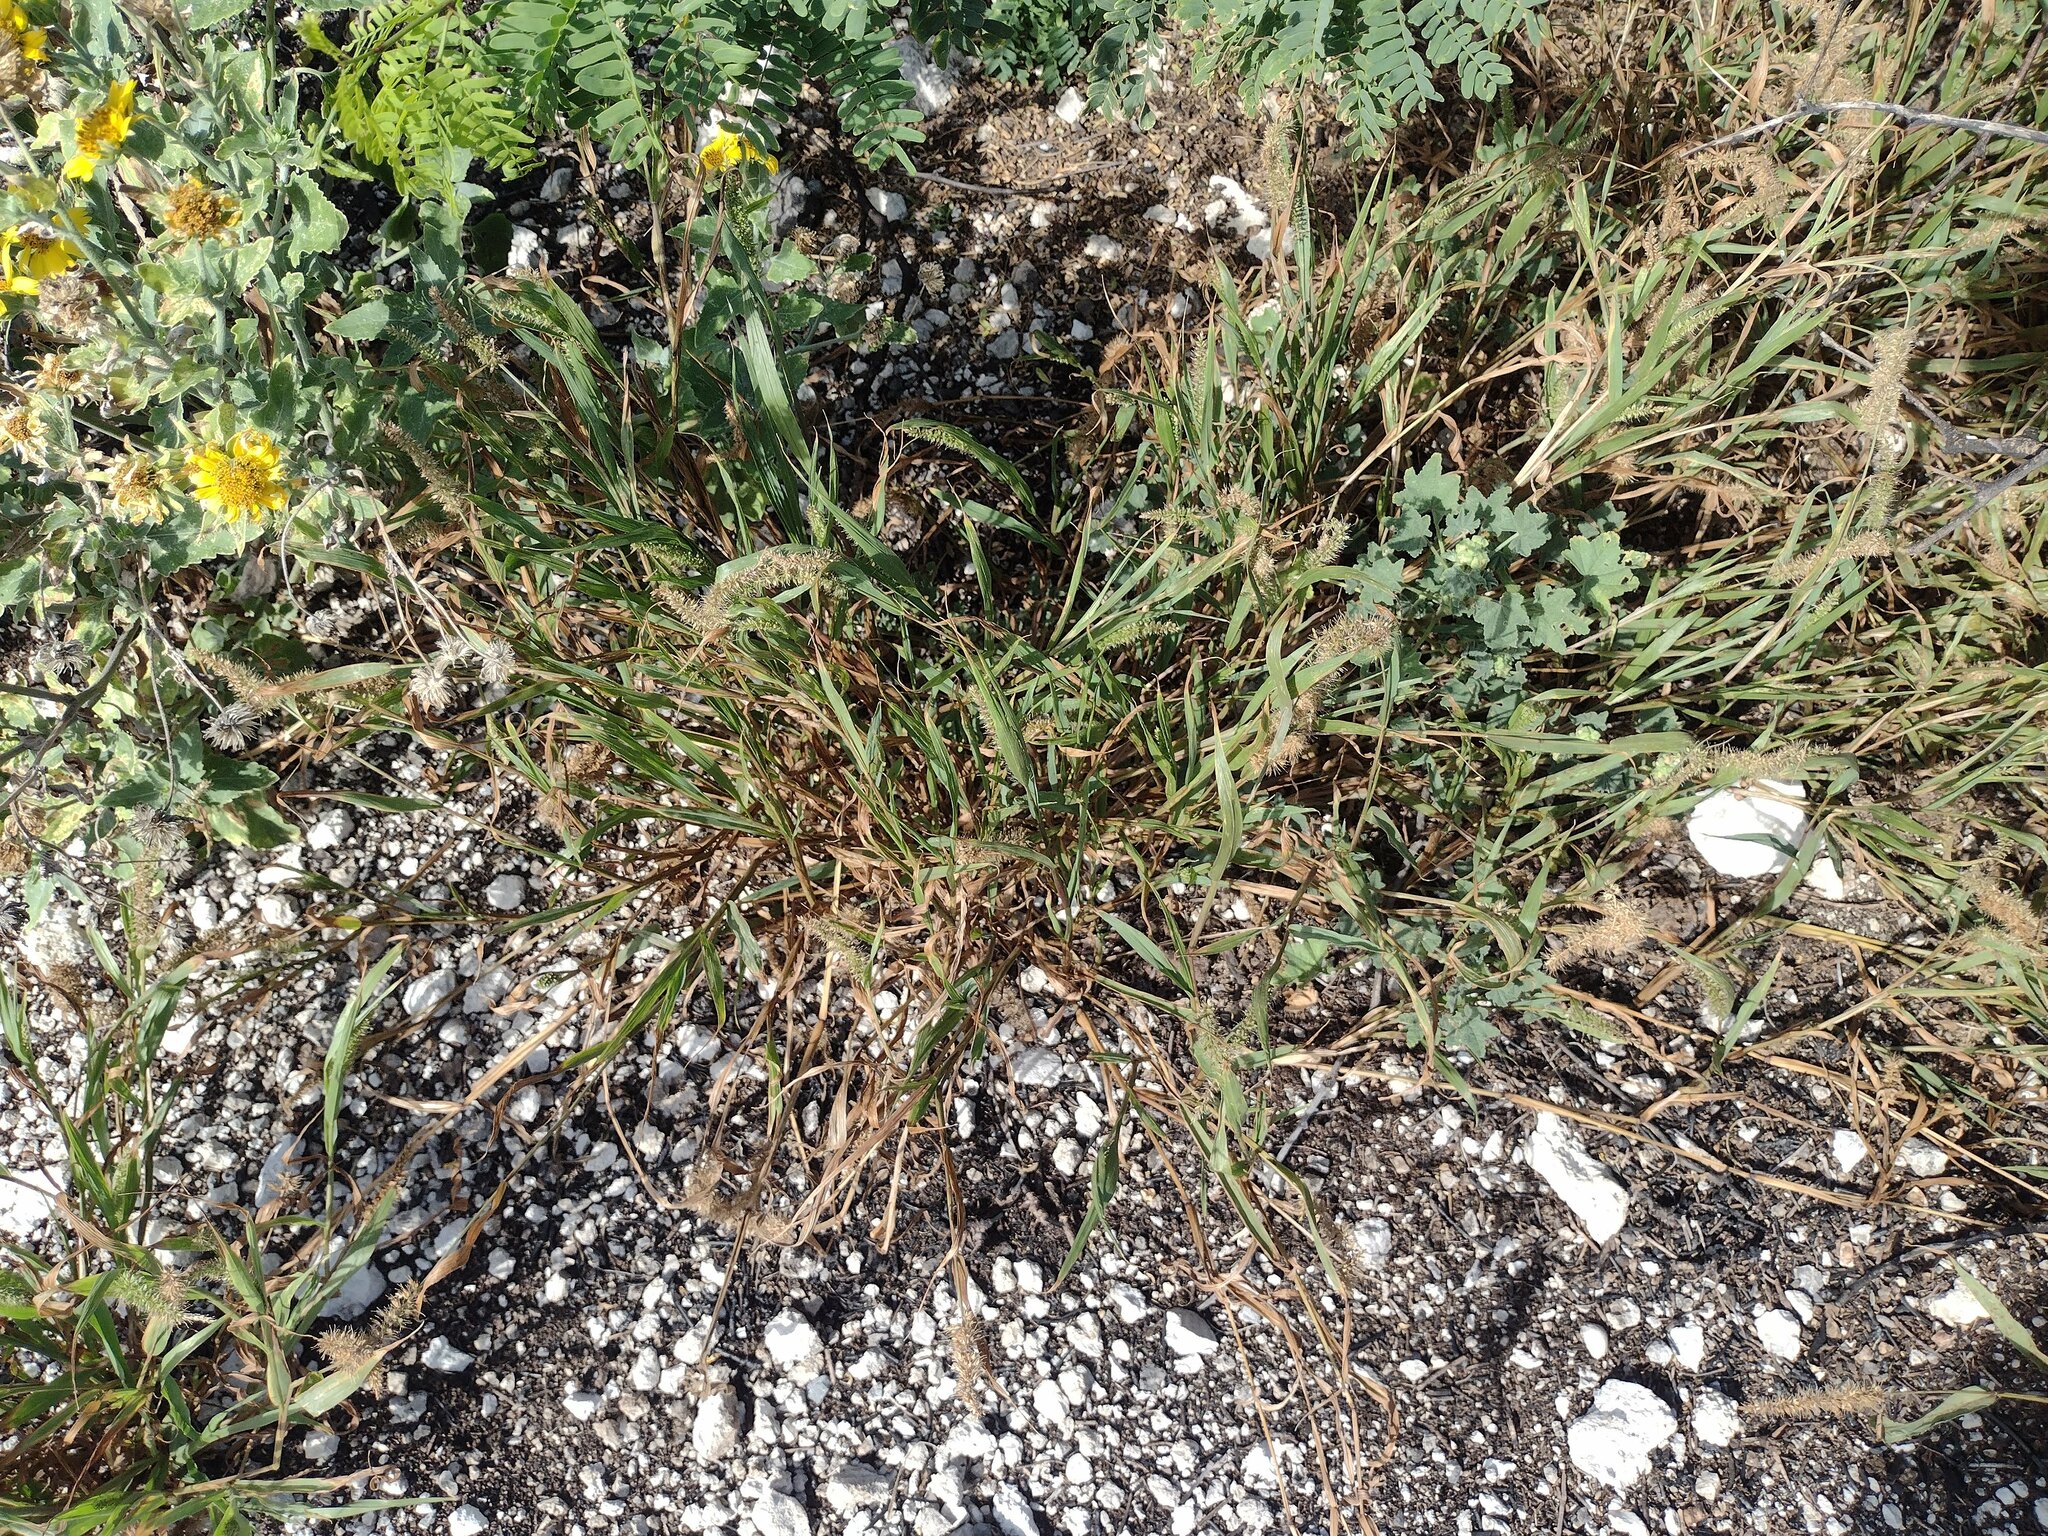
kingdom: Plantae
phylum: Tracheophyta
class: Liliopsida
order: Poales
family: Poaceae
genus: Setaria
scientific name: Setaria adhaerens
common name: Adherent bristle-grass
